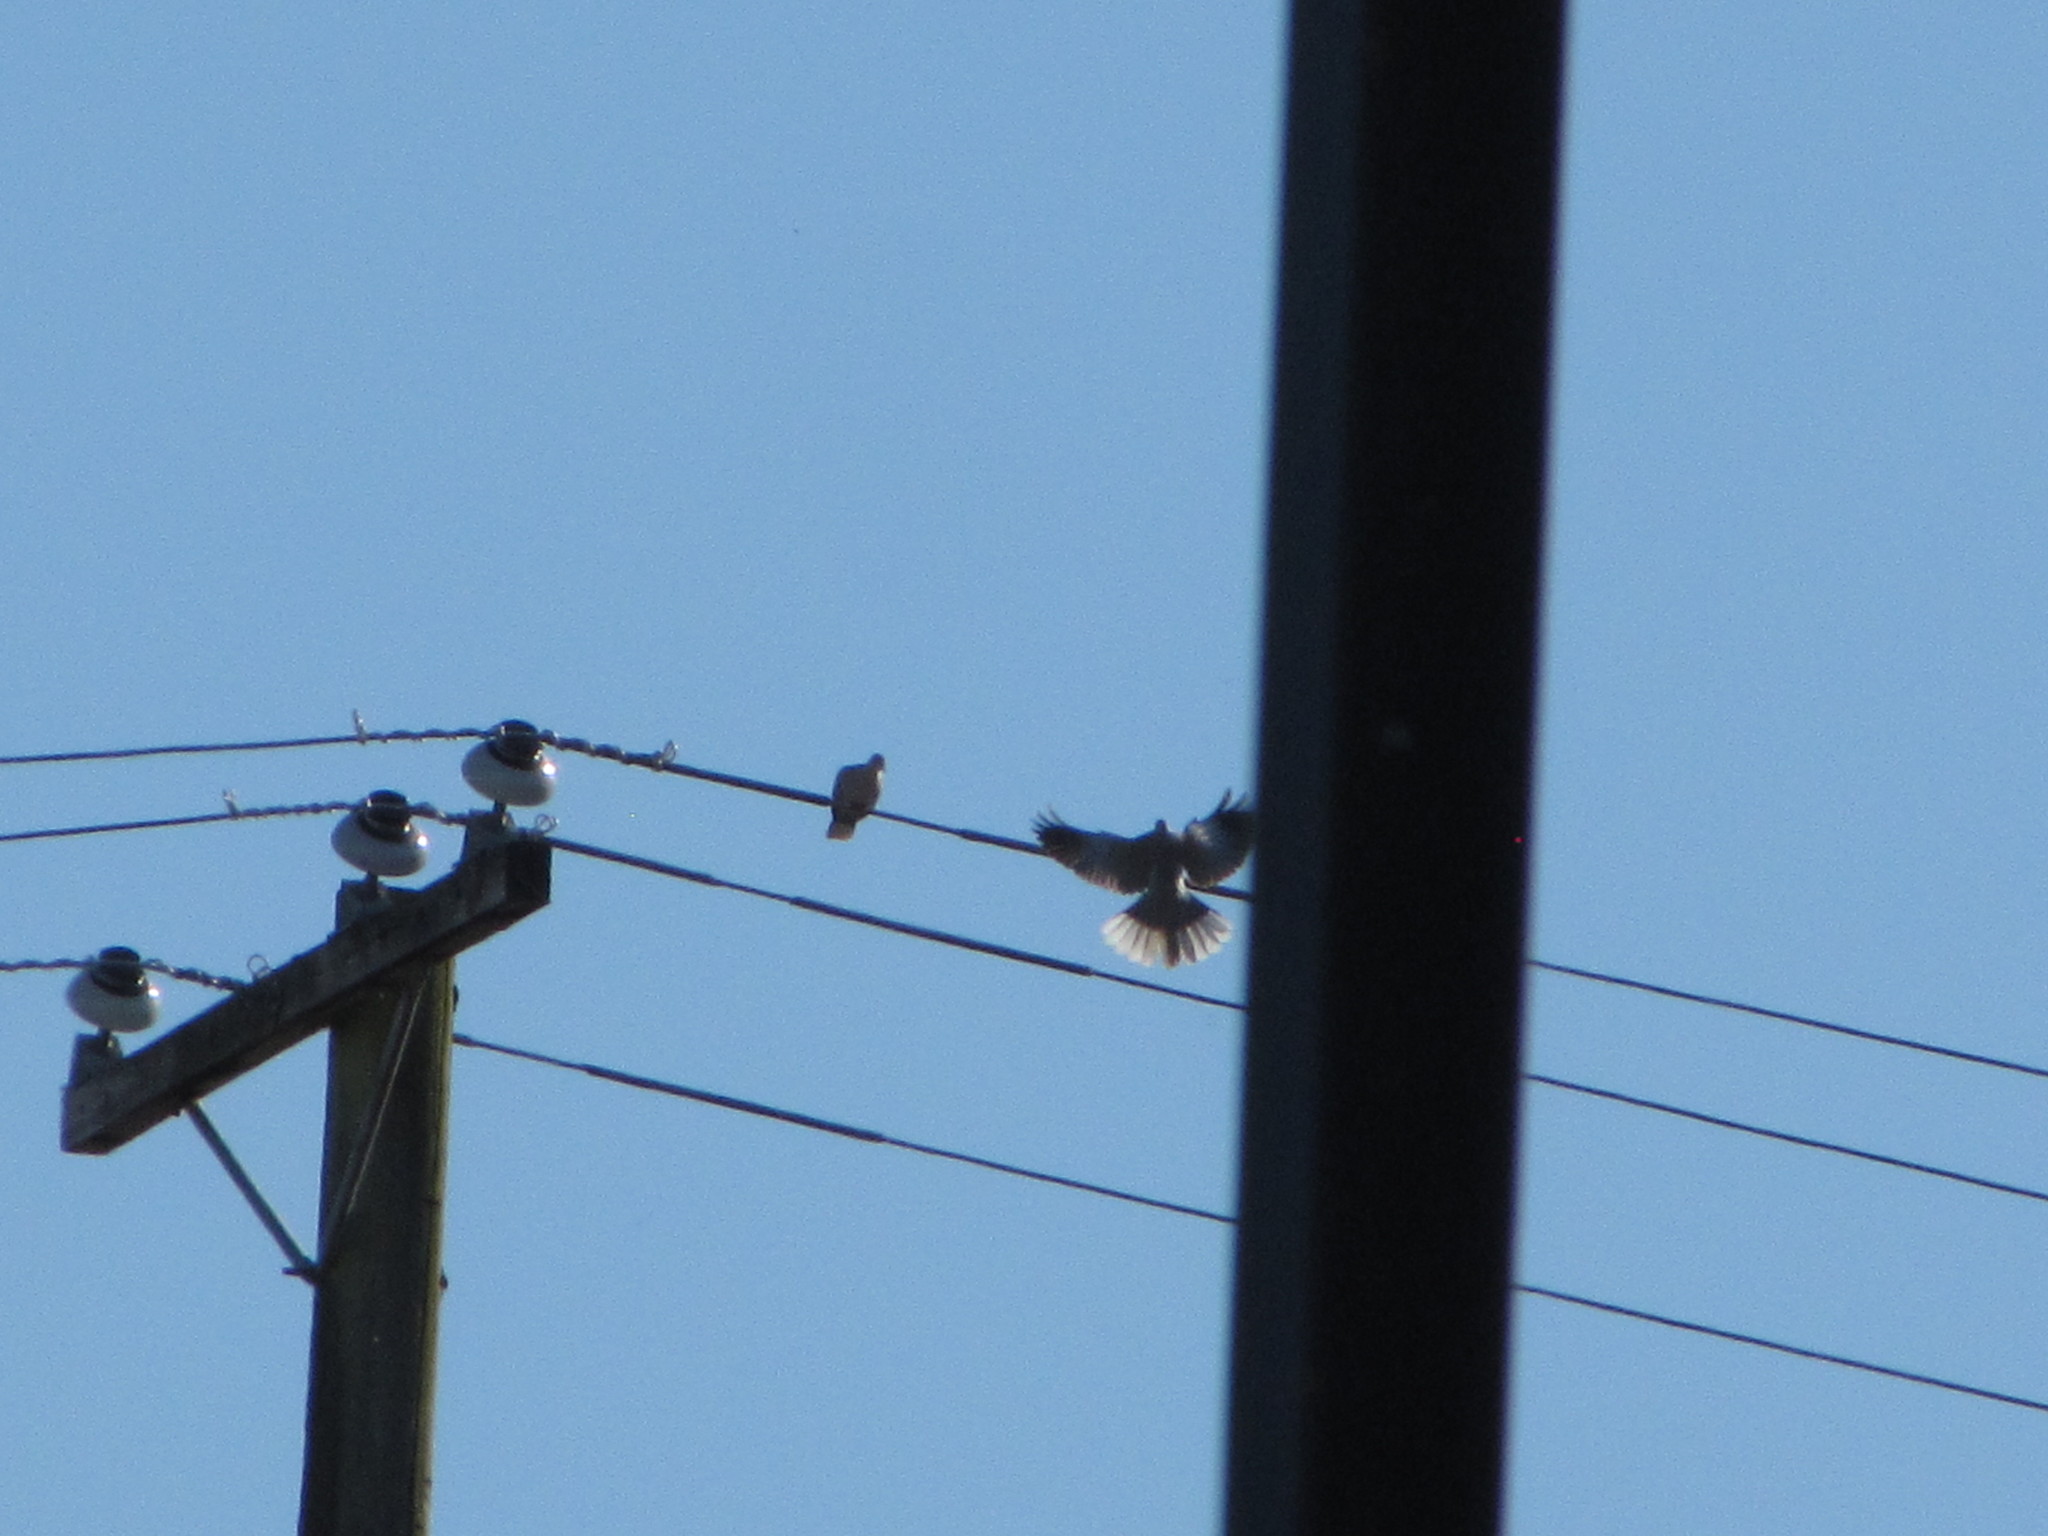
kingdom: Animalia
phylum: Chordata
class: Aves
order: Columbiformes
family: Columbidae
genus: Streptopelia
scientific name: Streptopelia decaocto
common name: Eurasian collared dove
